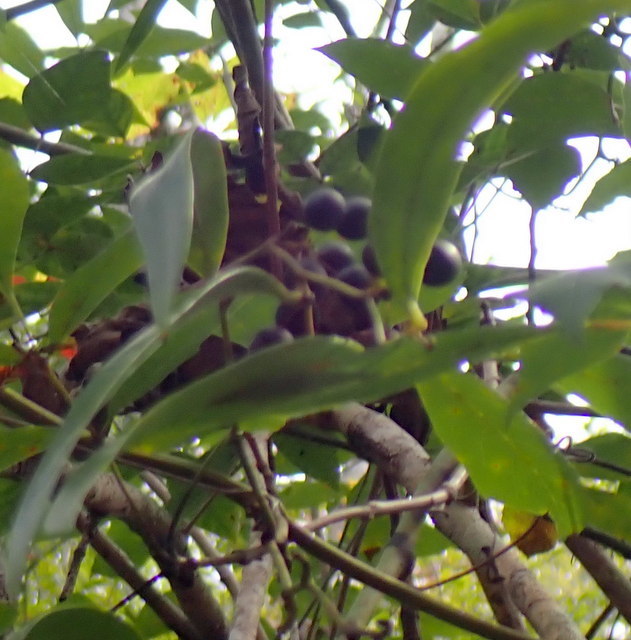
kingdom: Plantae
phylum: Tracheophyta
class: Liliopsida
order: Liliales
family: Smilacaceae
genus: Smilax
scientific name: Smilax laurifolia
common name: Bamboovine
